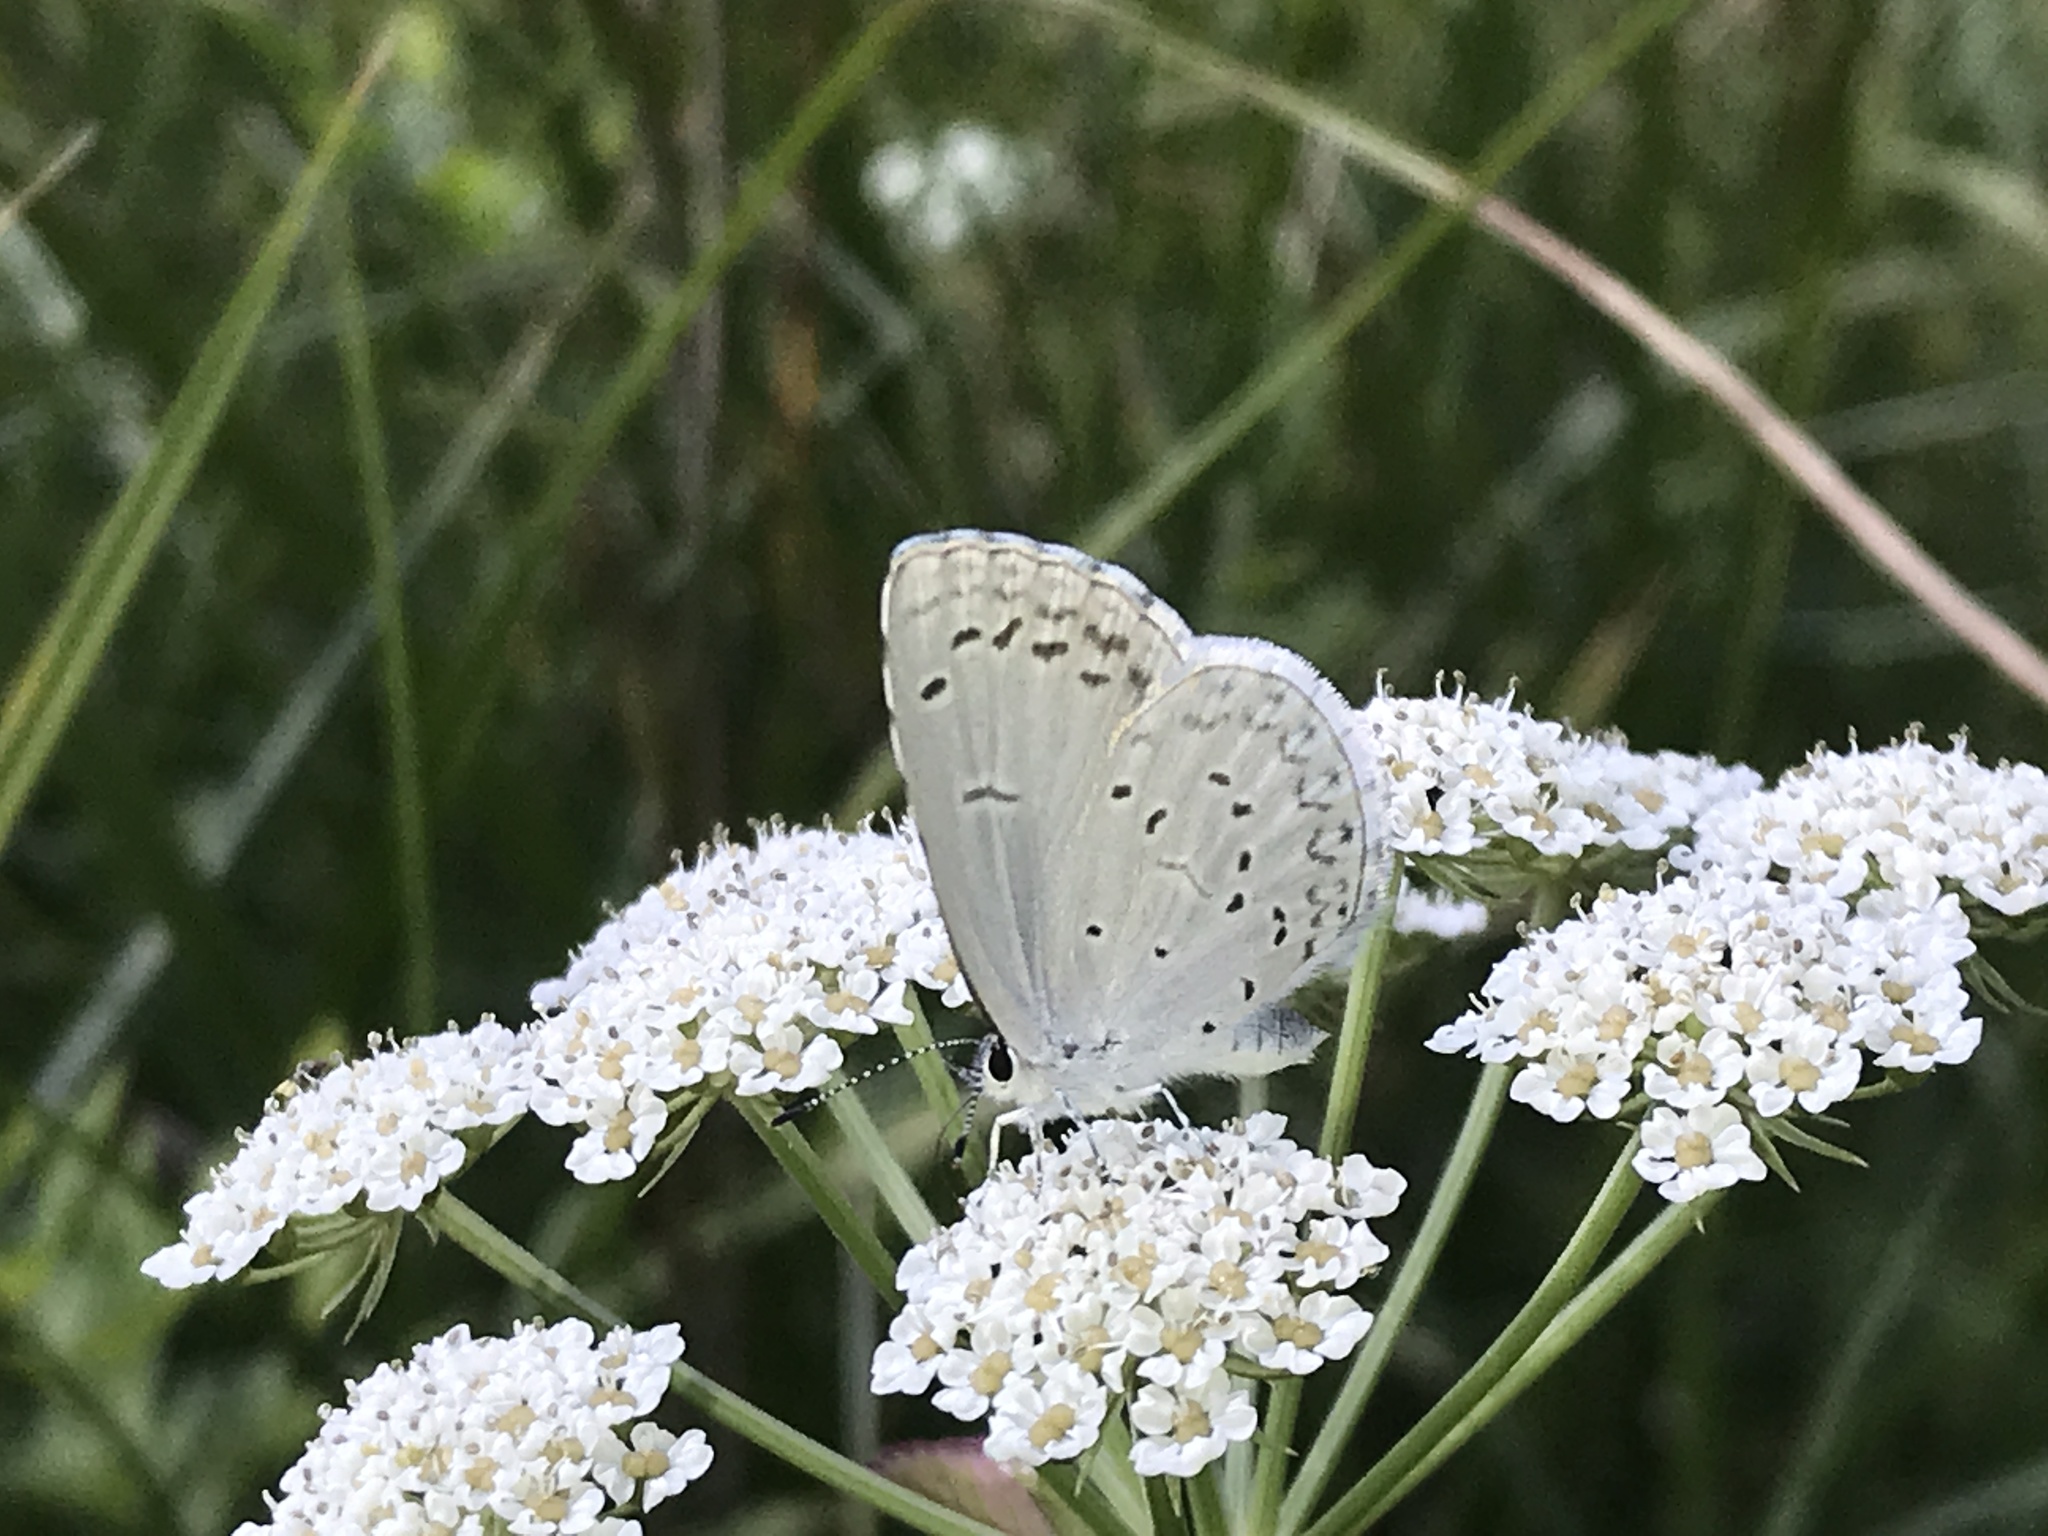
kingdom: Animalia
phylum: Arthropoda
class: Insecta
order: Lepidoptera
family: Lycaenidae
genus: Celastrina
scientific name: Celastrina argiolus
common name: Holly blue
